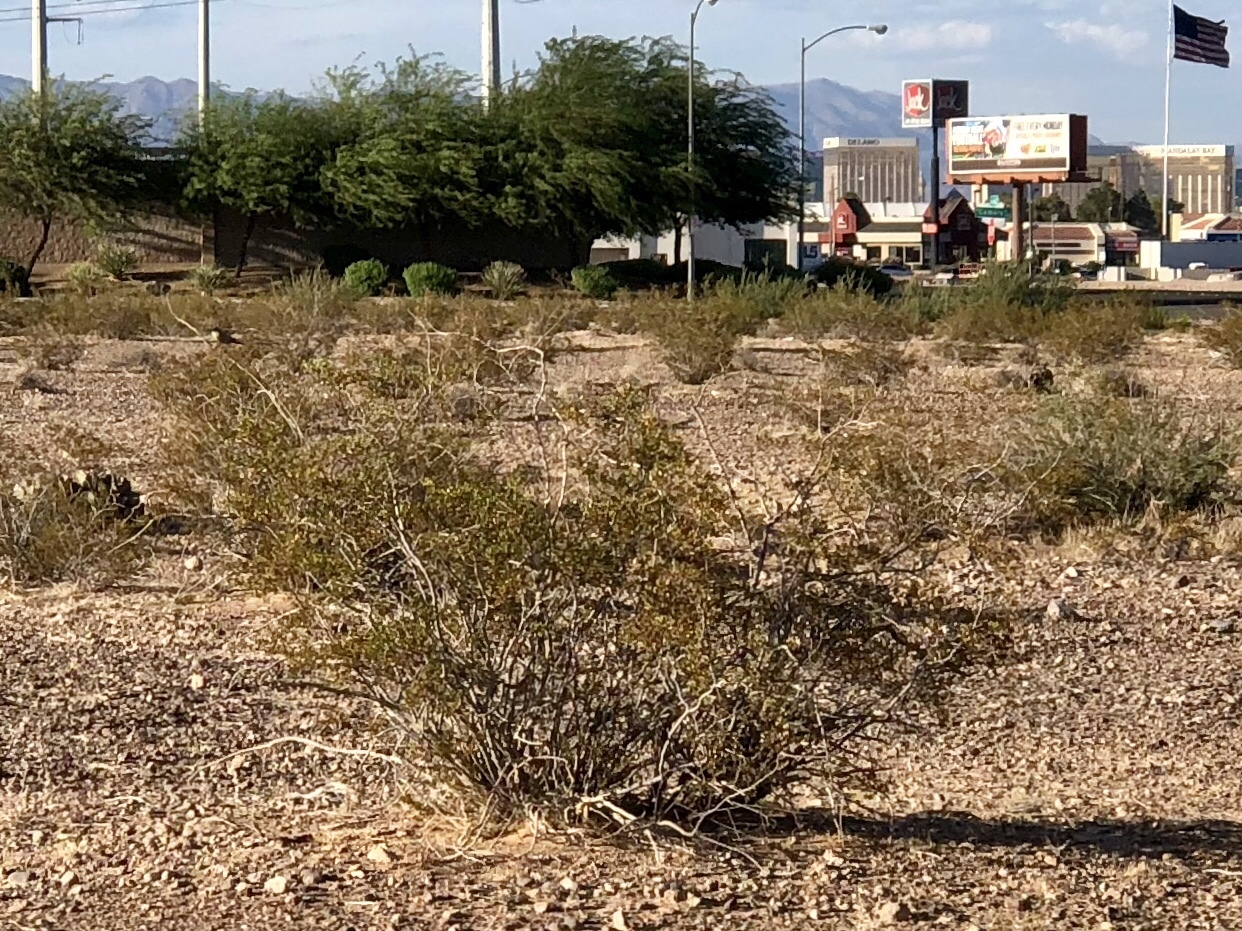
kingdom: Plantae
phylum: Tracheophyta
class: Magnoliopsida
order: Zygophyllales
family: Zygophyllaceae
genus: Larrea
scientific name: Larrea tridentata
